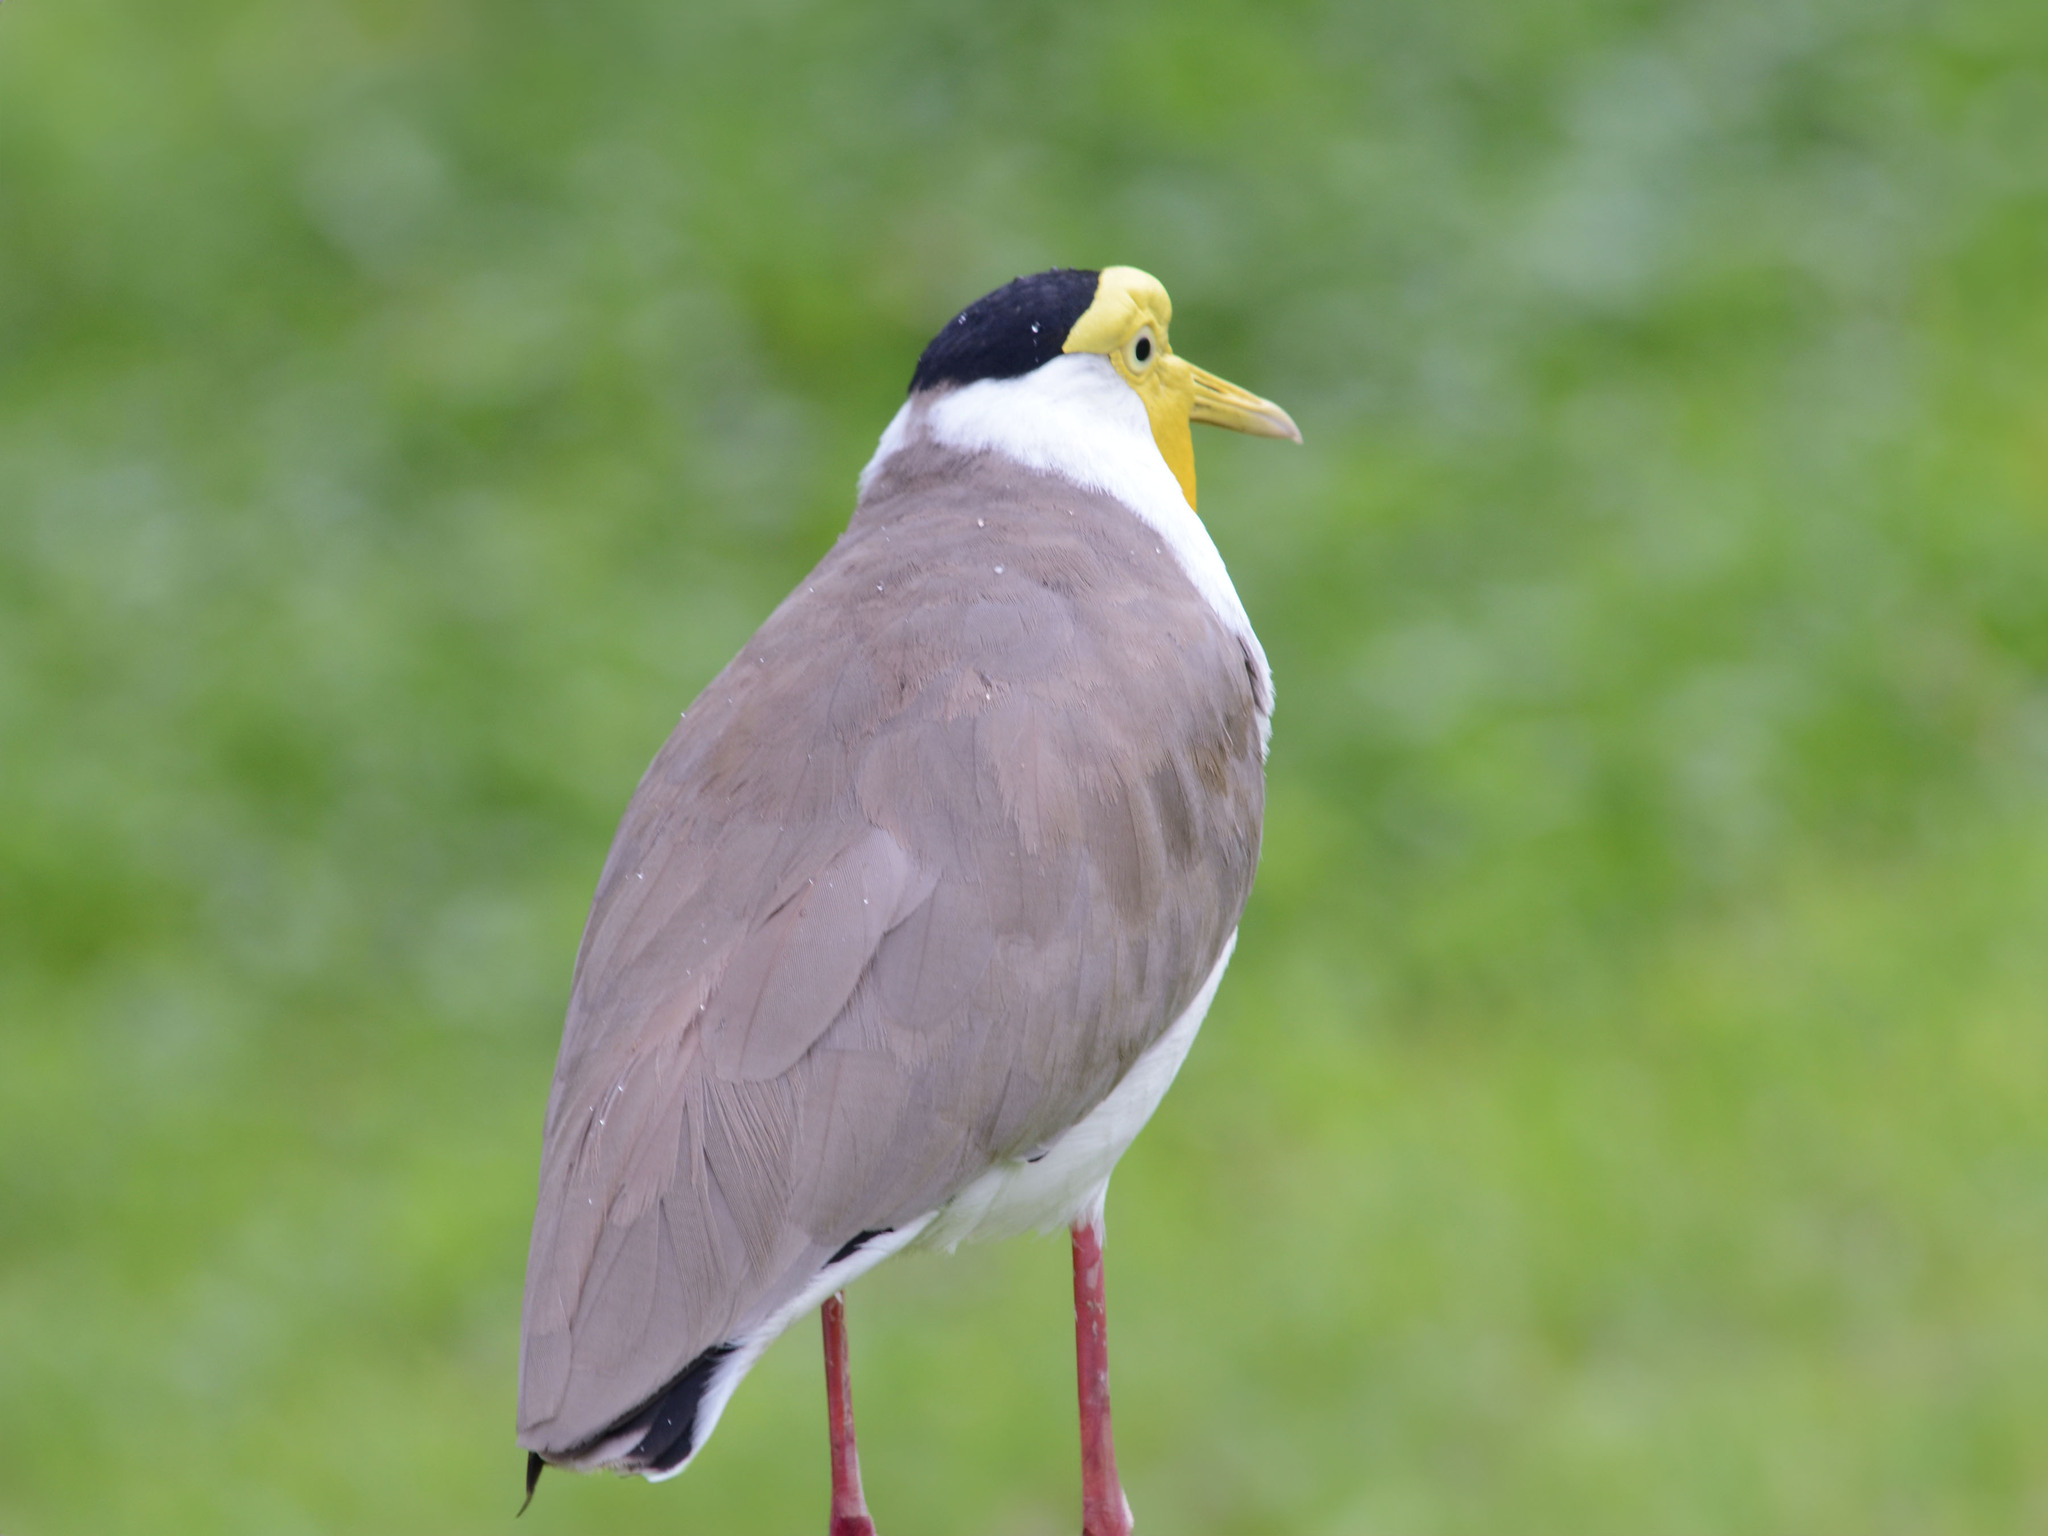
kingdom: Animalia
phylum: Chordata
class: Aves
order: Charadriiformes
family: Charadriidae
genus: Vanellus
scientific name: Vanellus miles
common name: Masked lapwing
